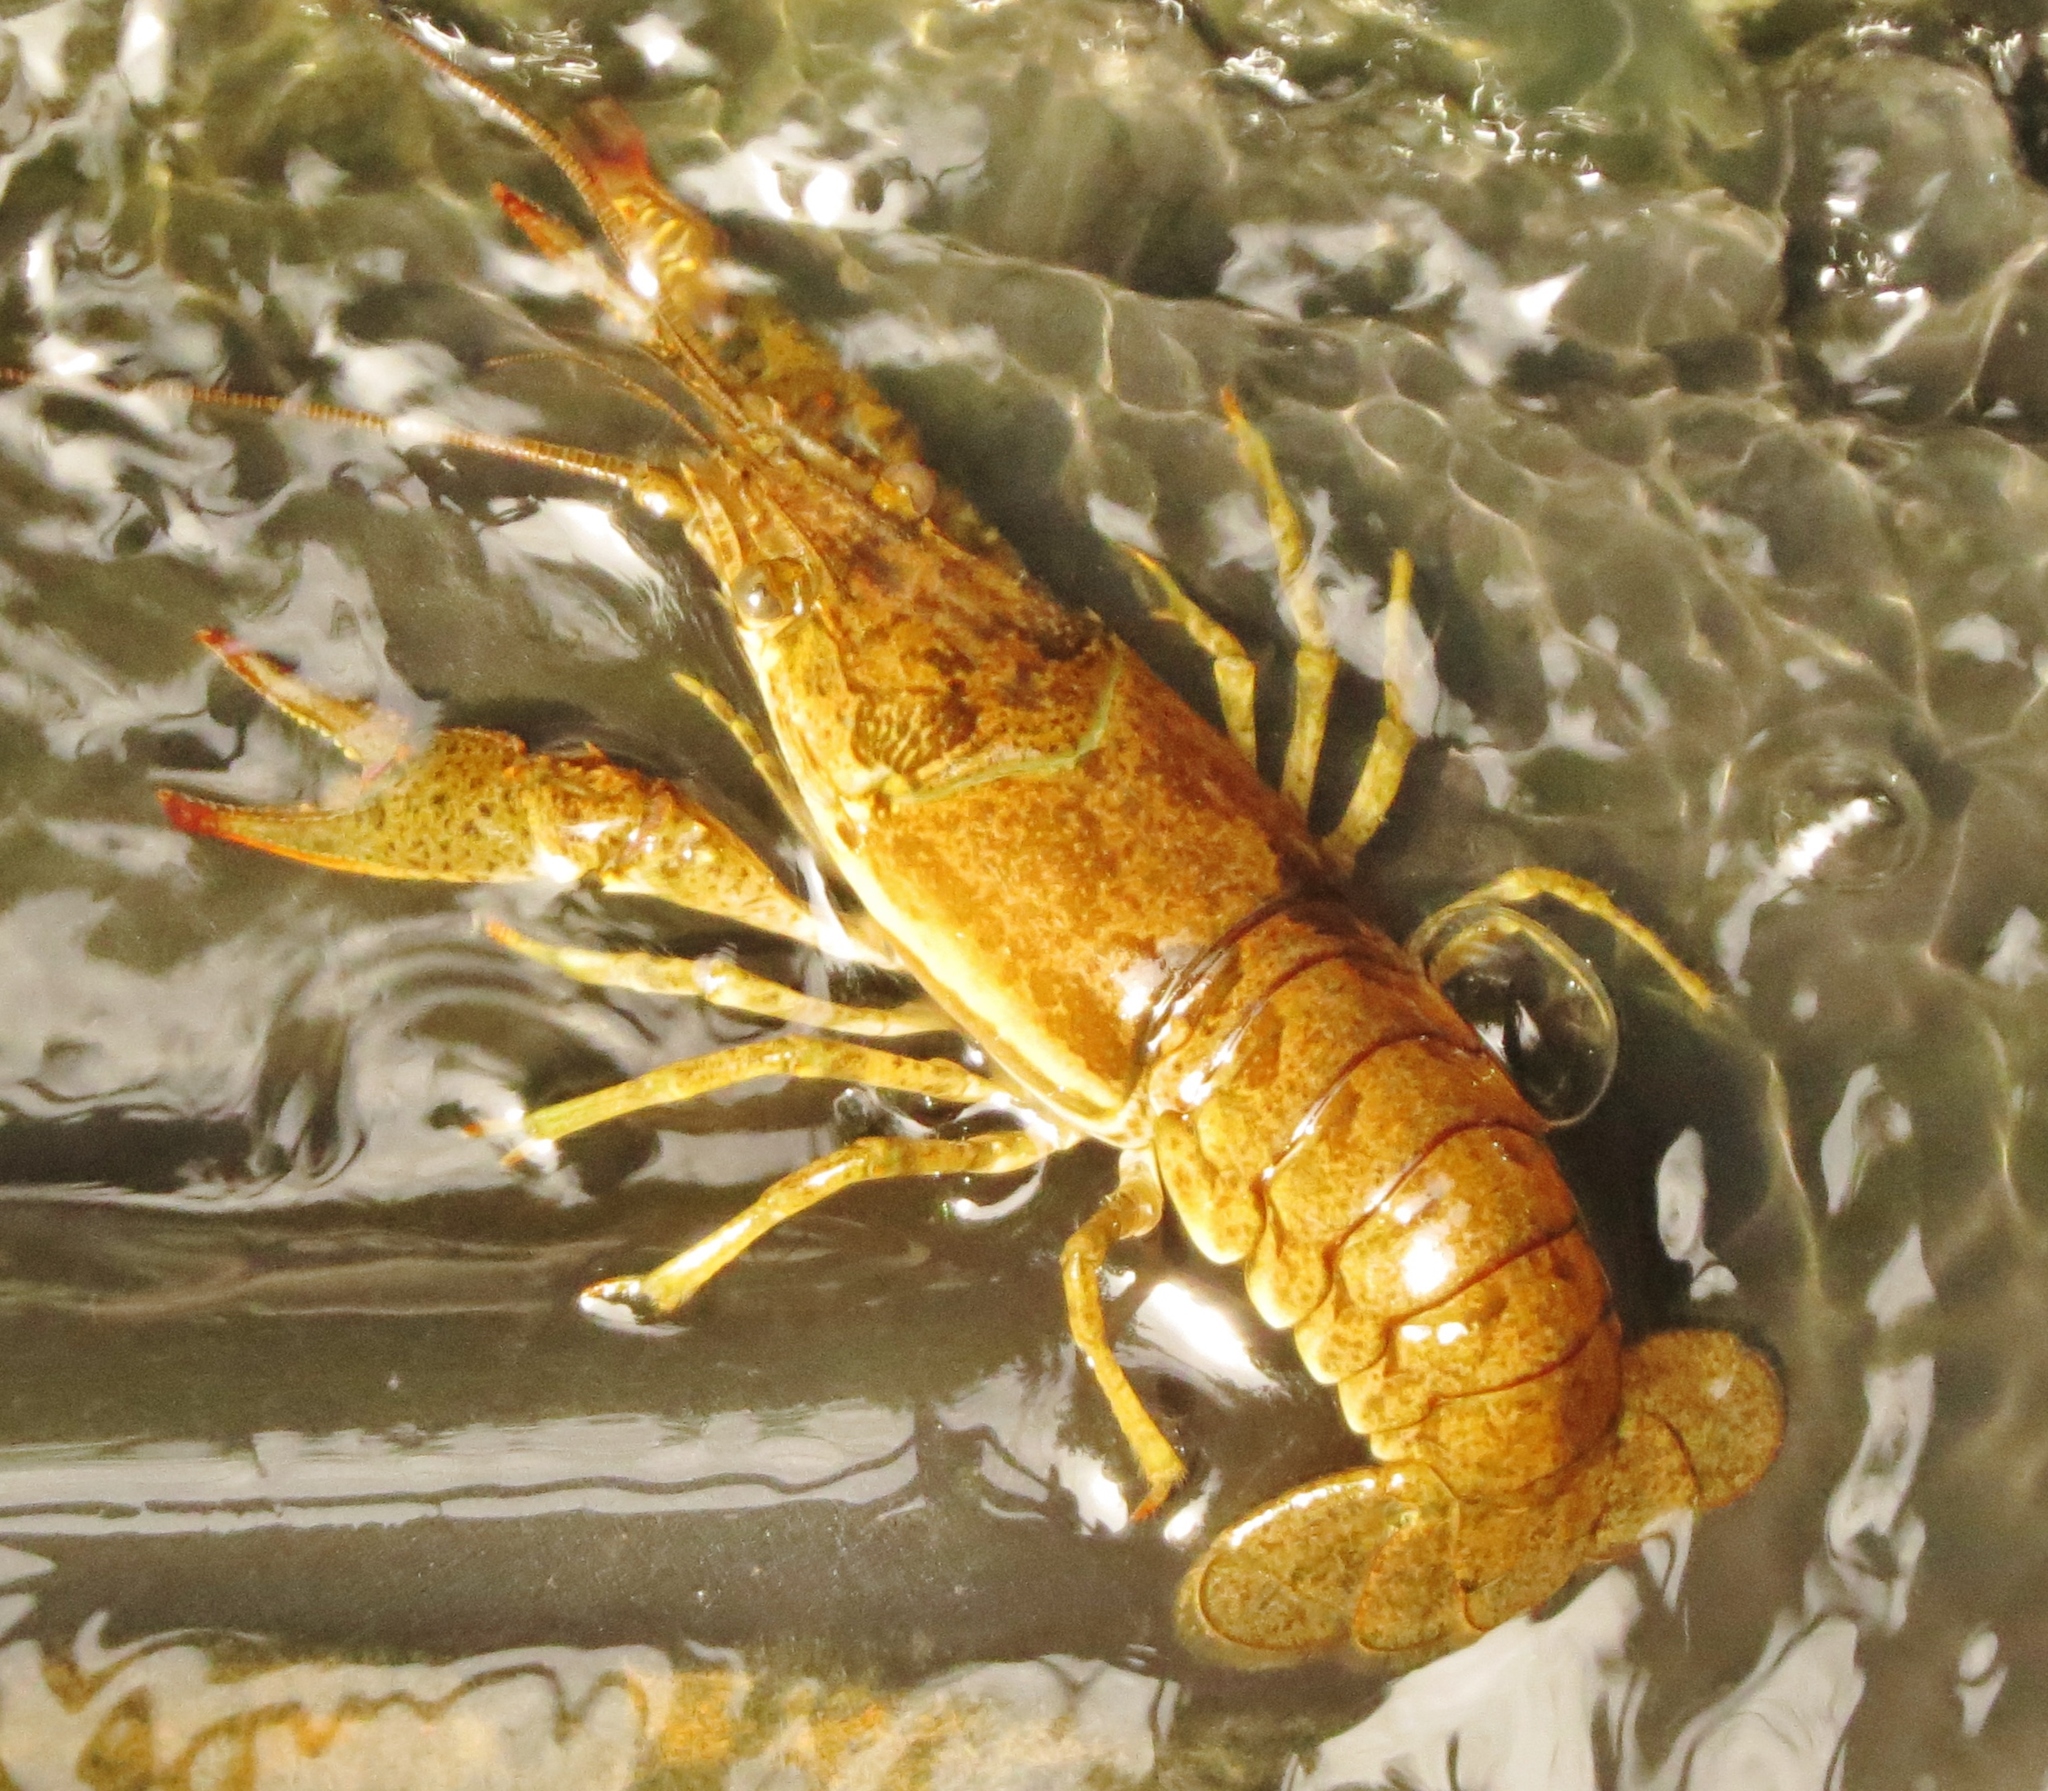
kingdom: Animalia
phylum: Arthropoda
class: Malacostraca
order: Decapoda
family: Cambaridae
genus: Faxonius
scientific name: Faxonius virilis
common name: Virile crayfish
